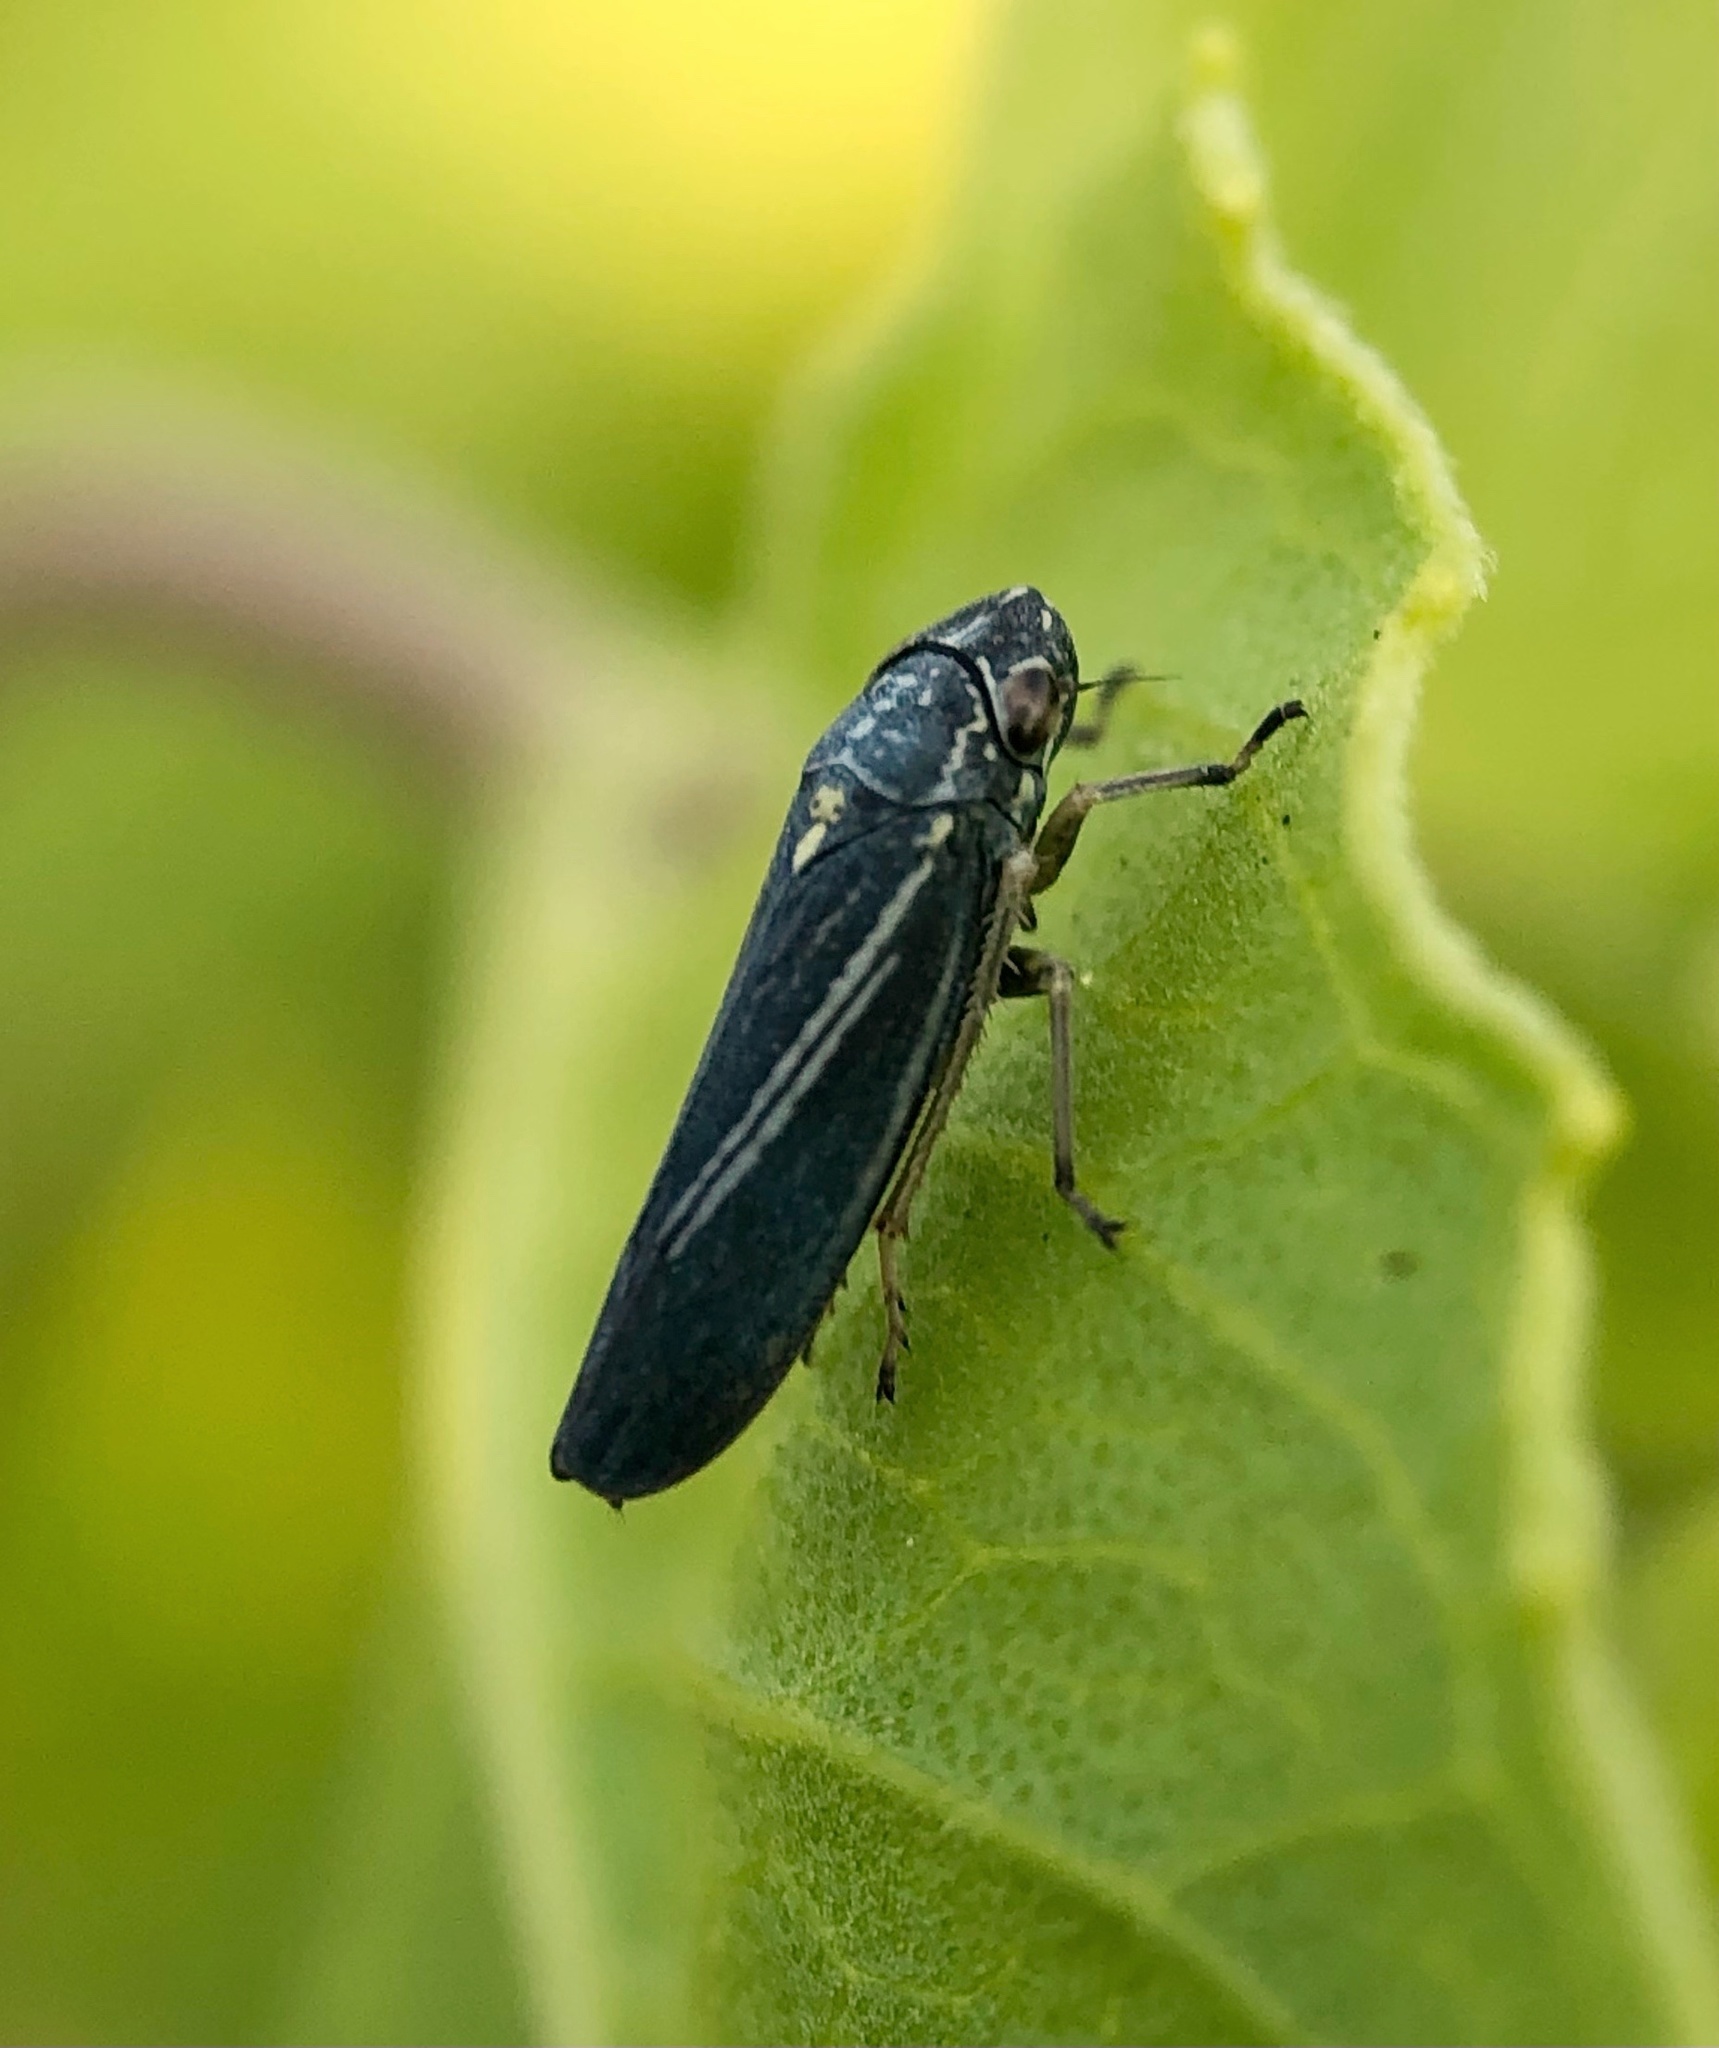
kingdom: Animalia
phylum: Arthropoda
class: Insecta
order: Hemiptera
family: Cicadellidae
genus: Neokolla
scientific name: Neokolla hieroglyphica
